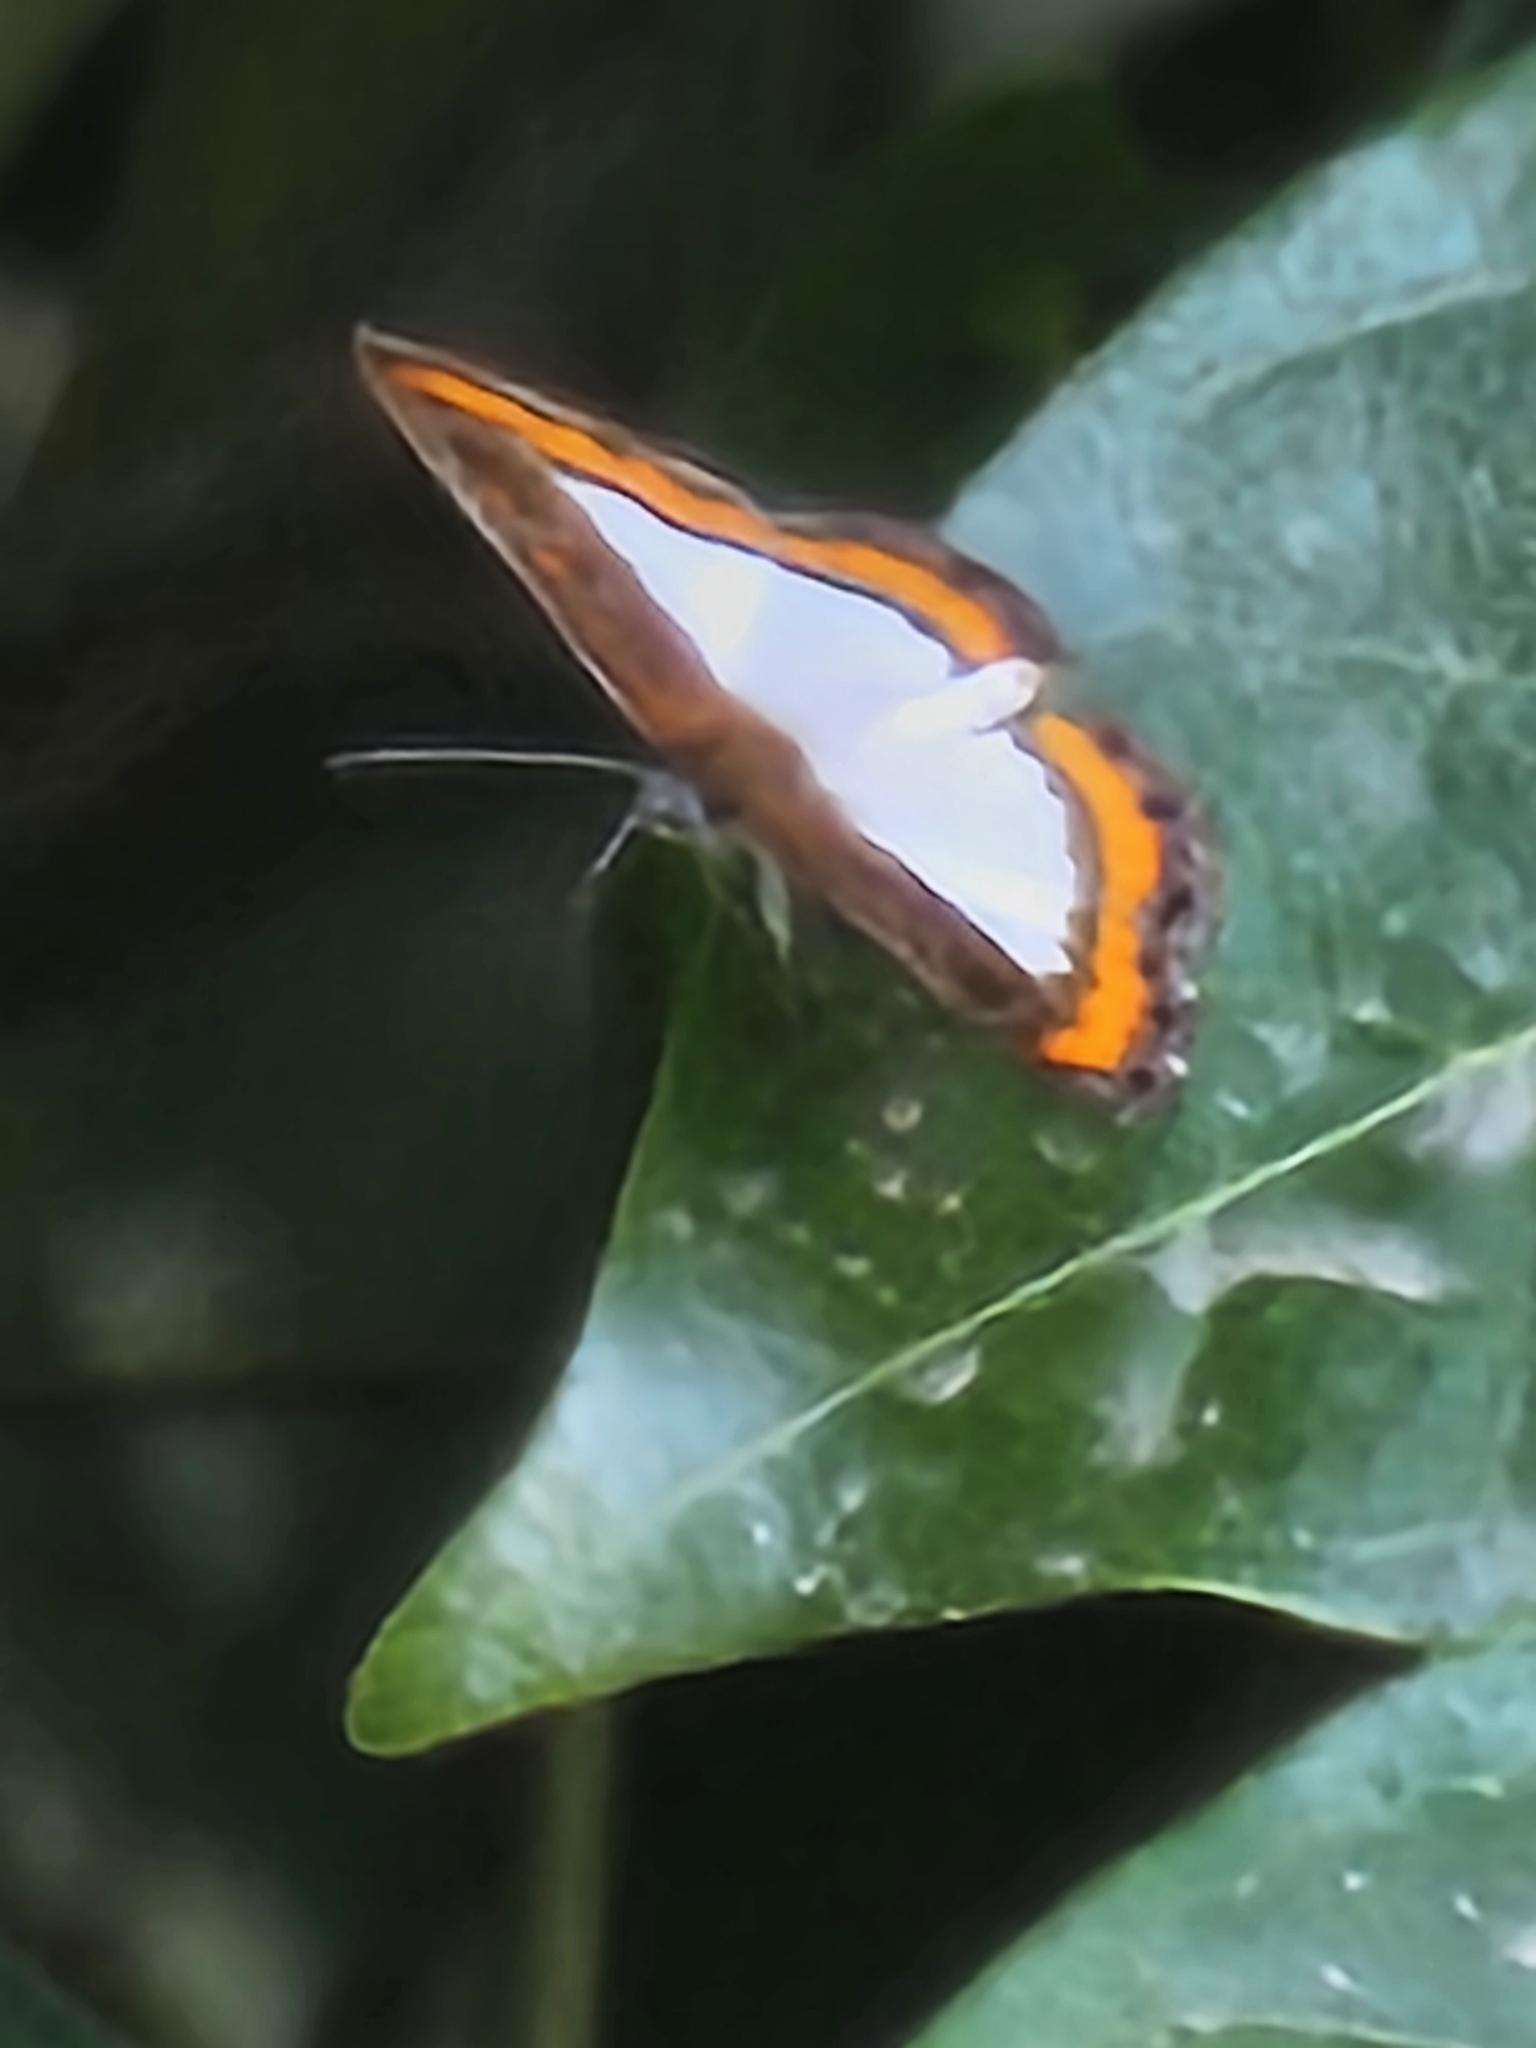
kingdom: Animalia
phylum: Arthropoda
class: Insecta
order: Lepidoptera
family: Riodinidae
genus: Nymula
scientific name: Nymula calyce
